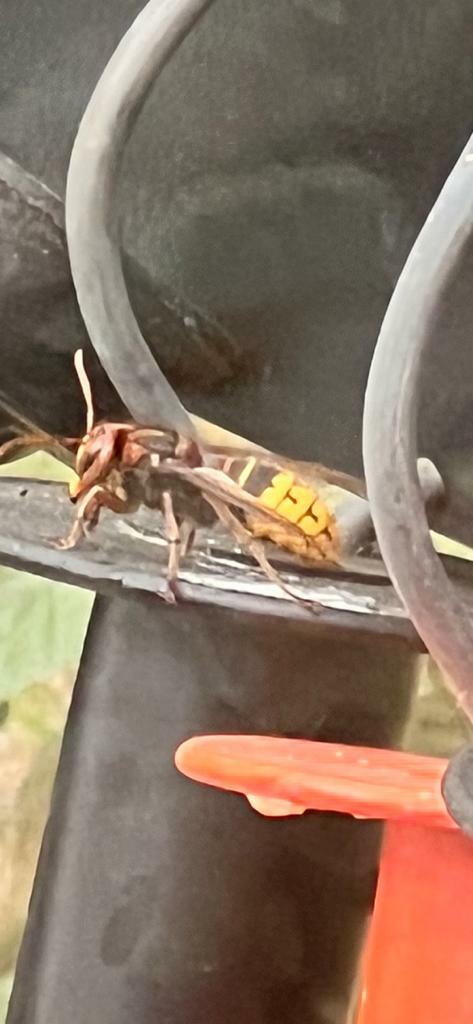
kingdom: Animalia
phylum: Arthropoda
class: Insecta
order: Hymenoptera
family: Vespidae
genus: Vespa
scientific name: Vespa crabro
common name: Hornet
